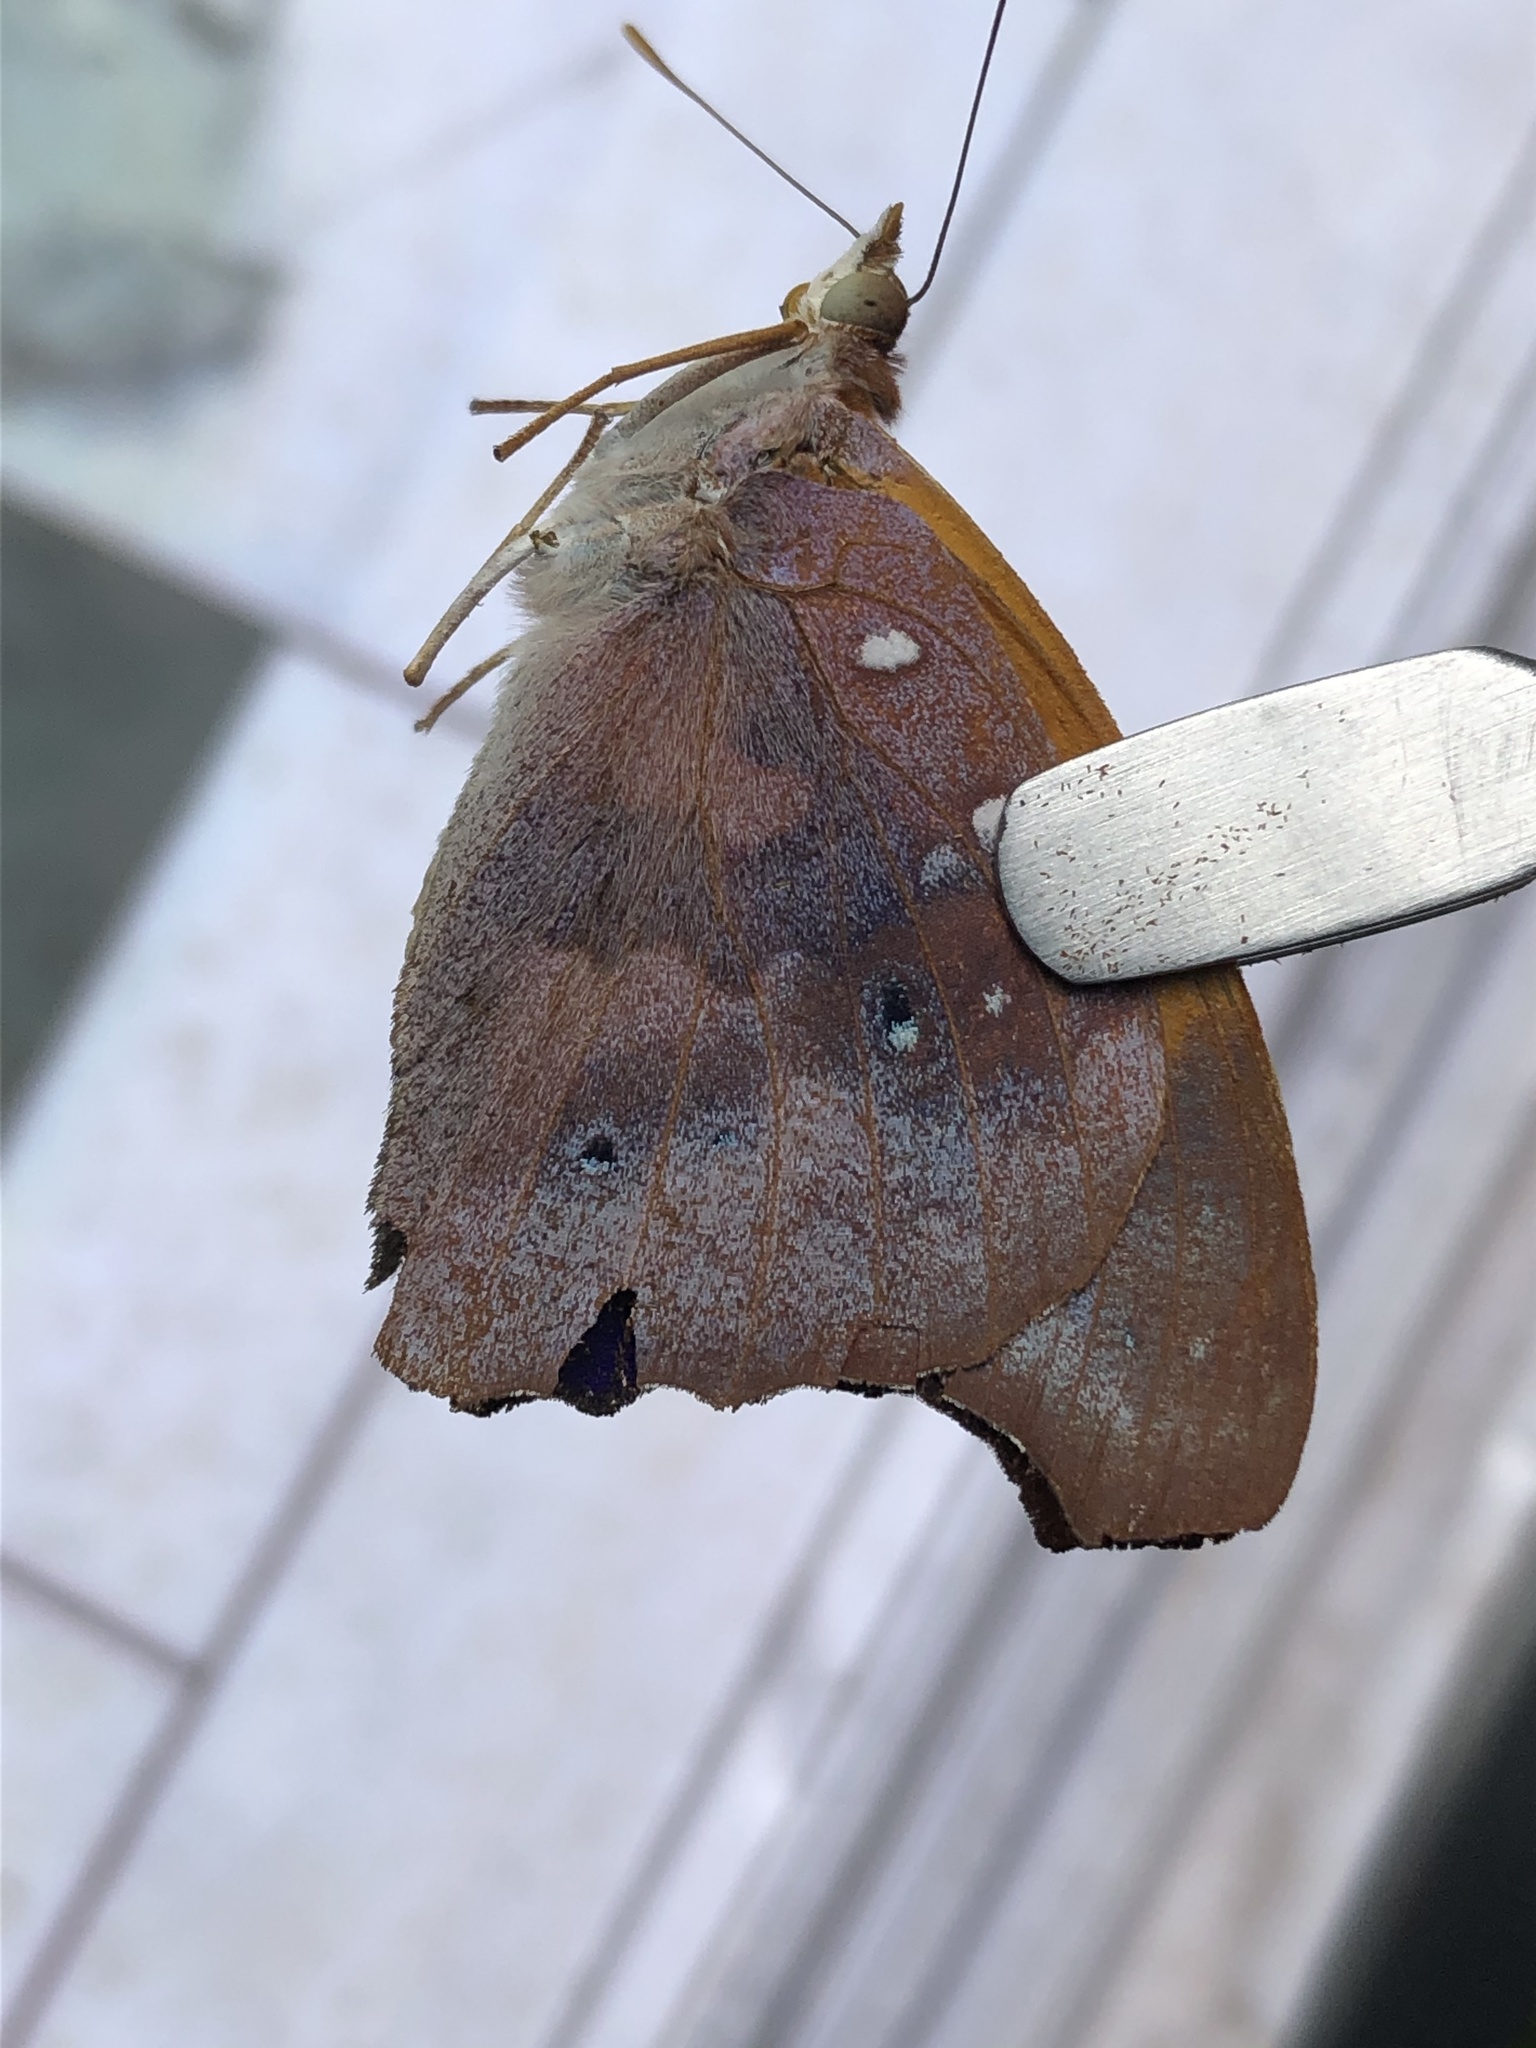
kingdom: Animalia
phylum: Arthropoda
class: Insecta
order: Lepidoptera
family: Nymphalidae
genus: Temenis
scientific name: Temenis laothoe
